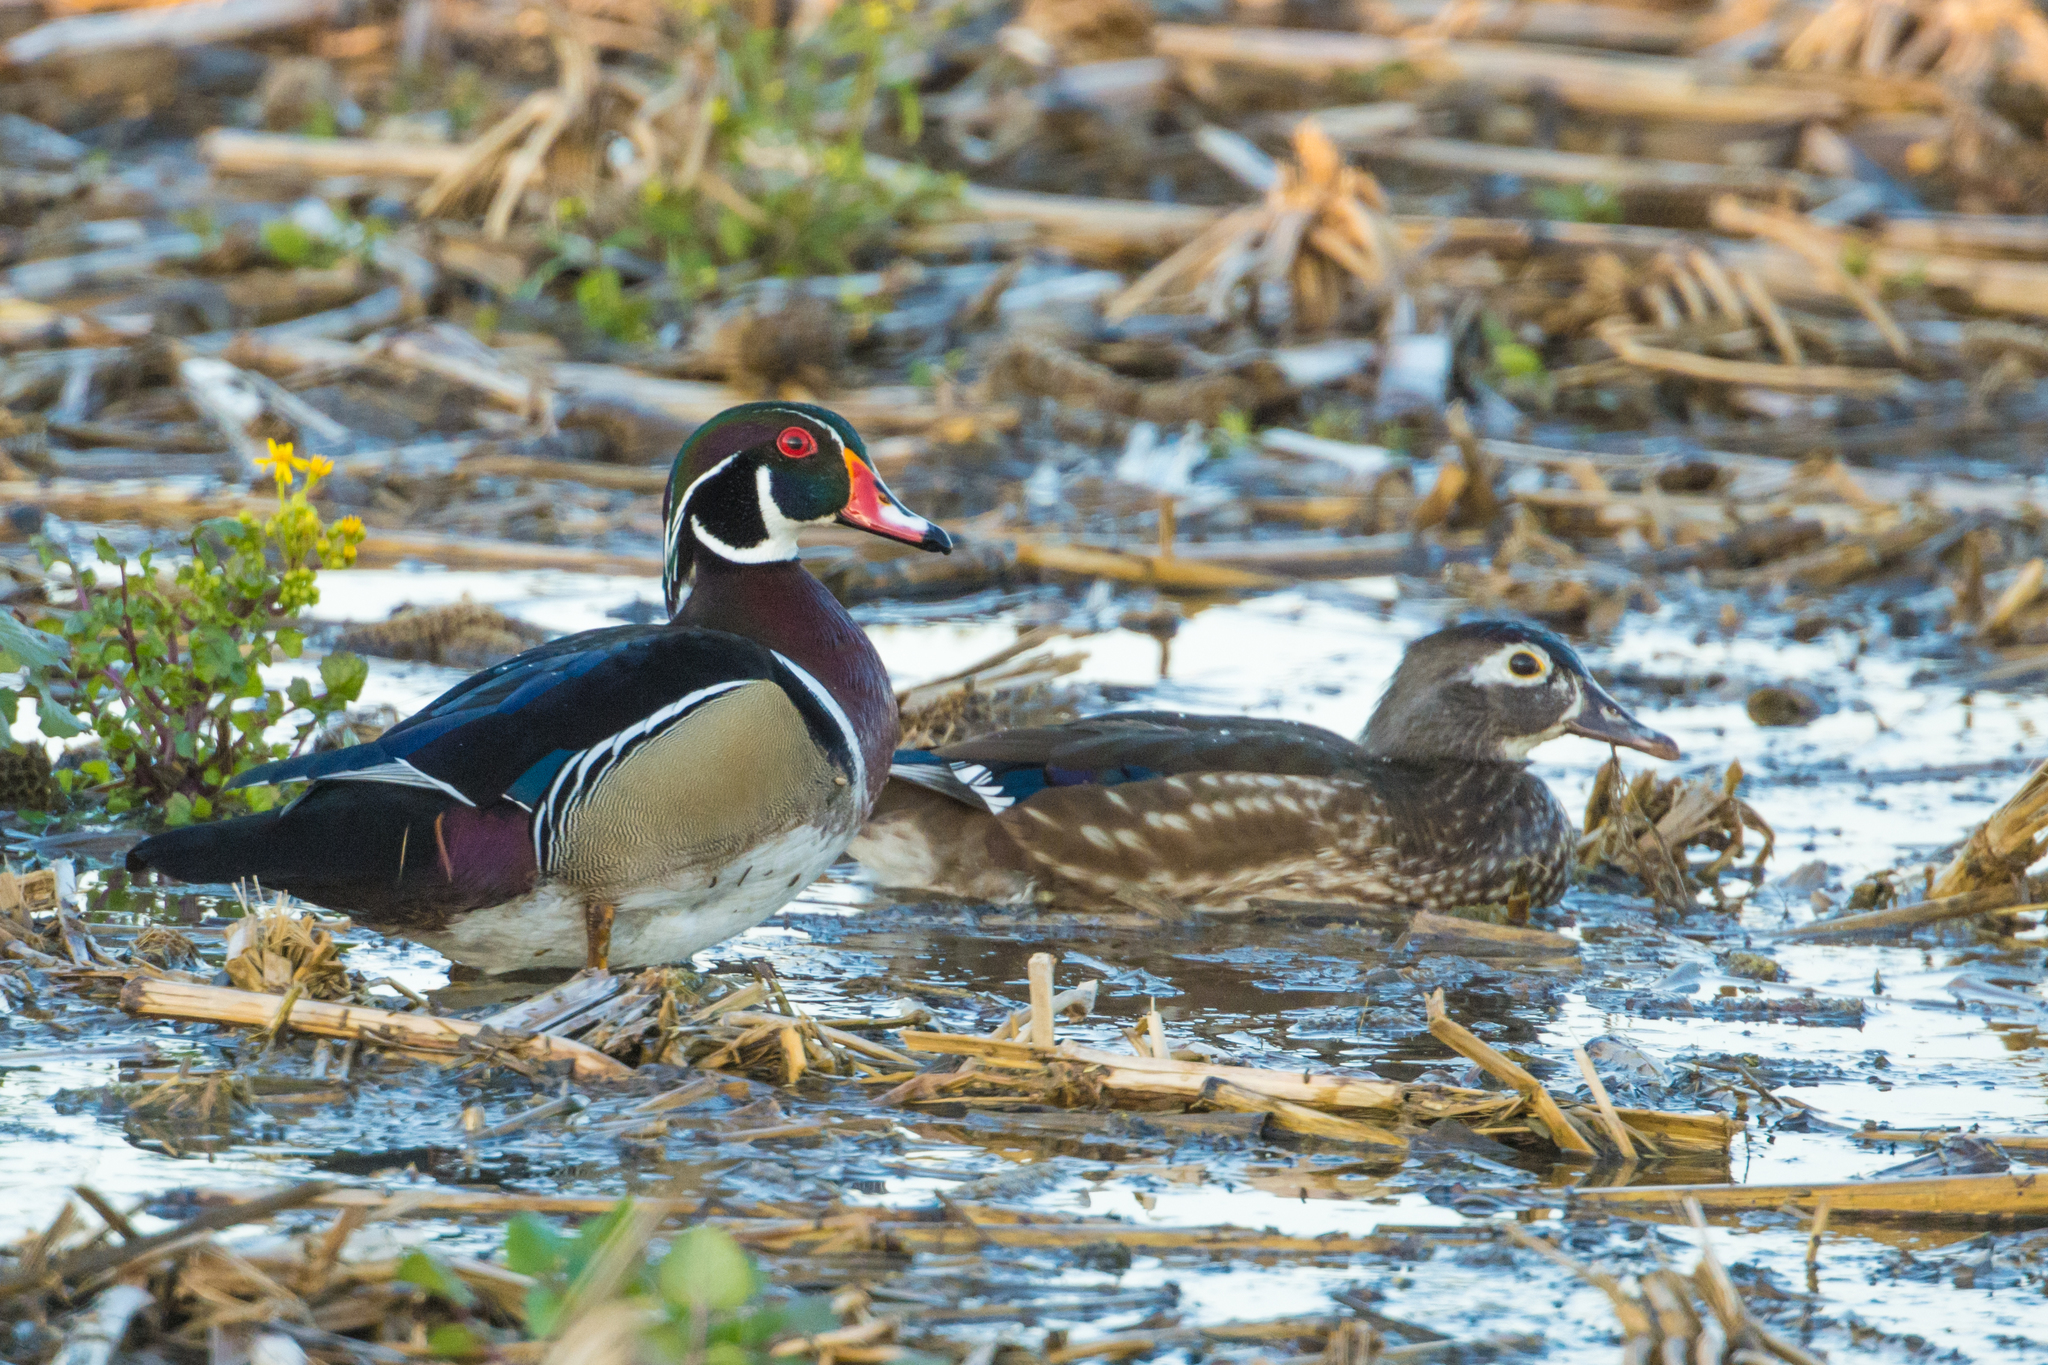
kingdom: Animalia
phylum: Chordata
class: Aves
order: Anseriformes
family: Anatidae
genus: Aix
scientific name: Aix sponsa
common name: Wood duck
